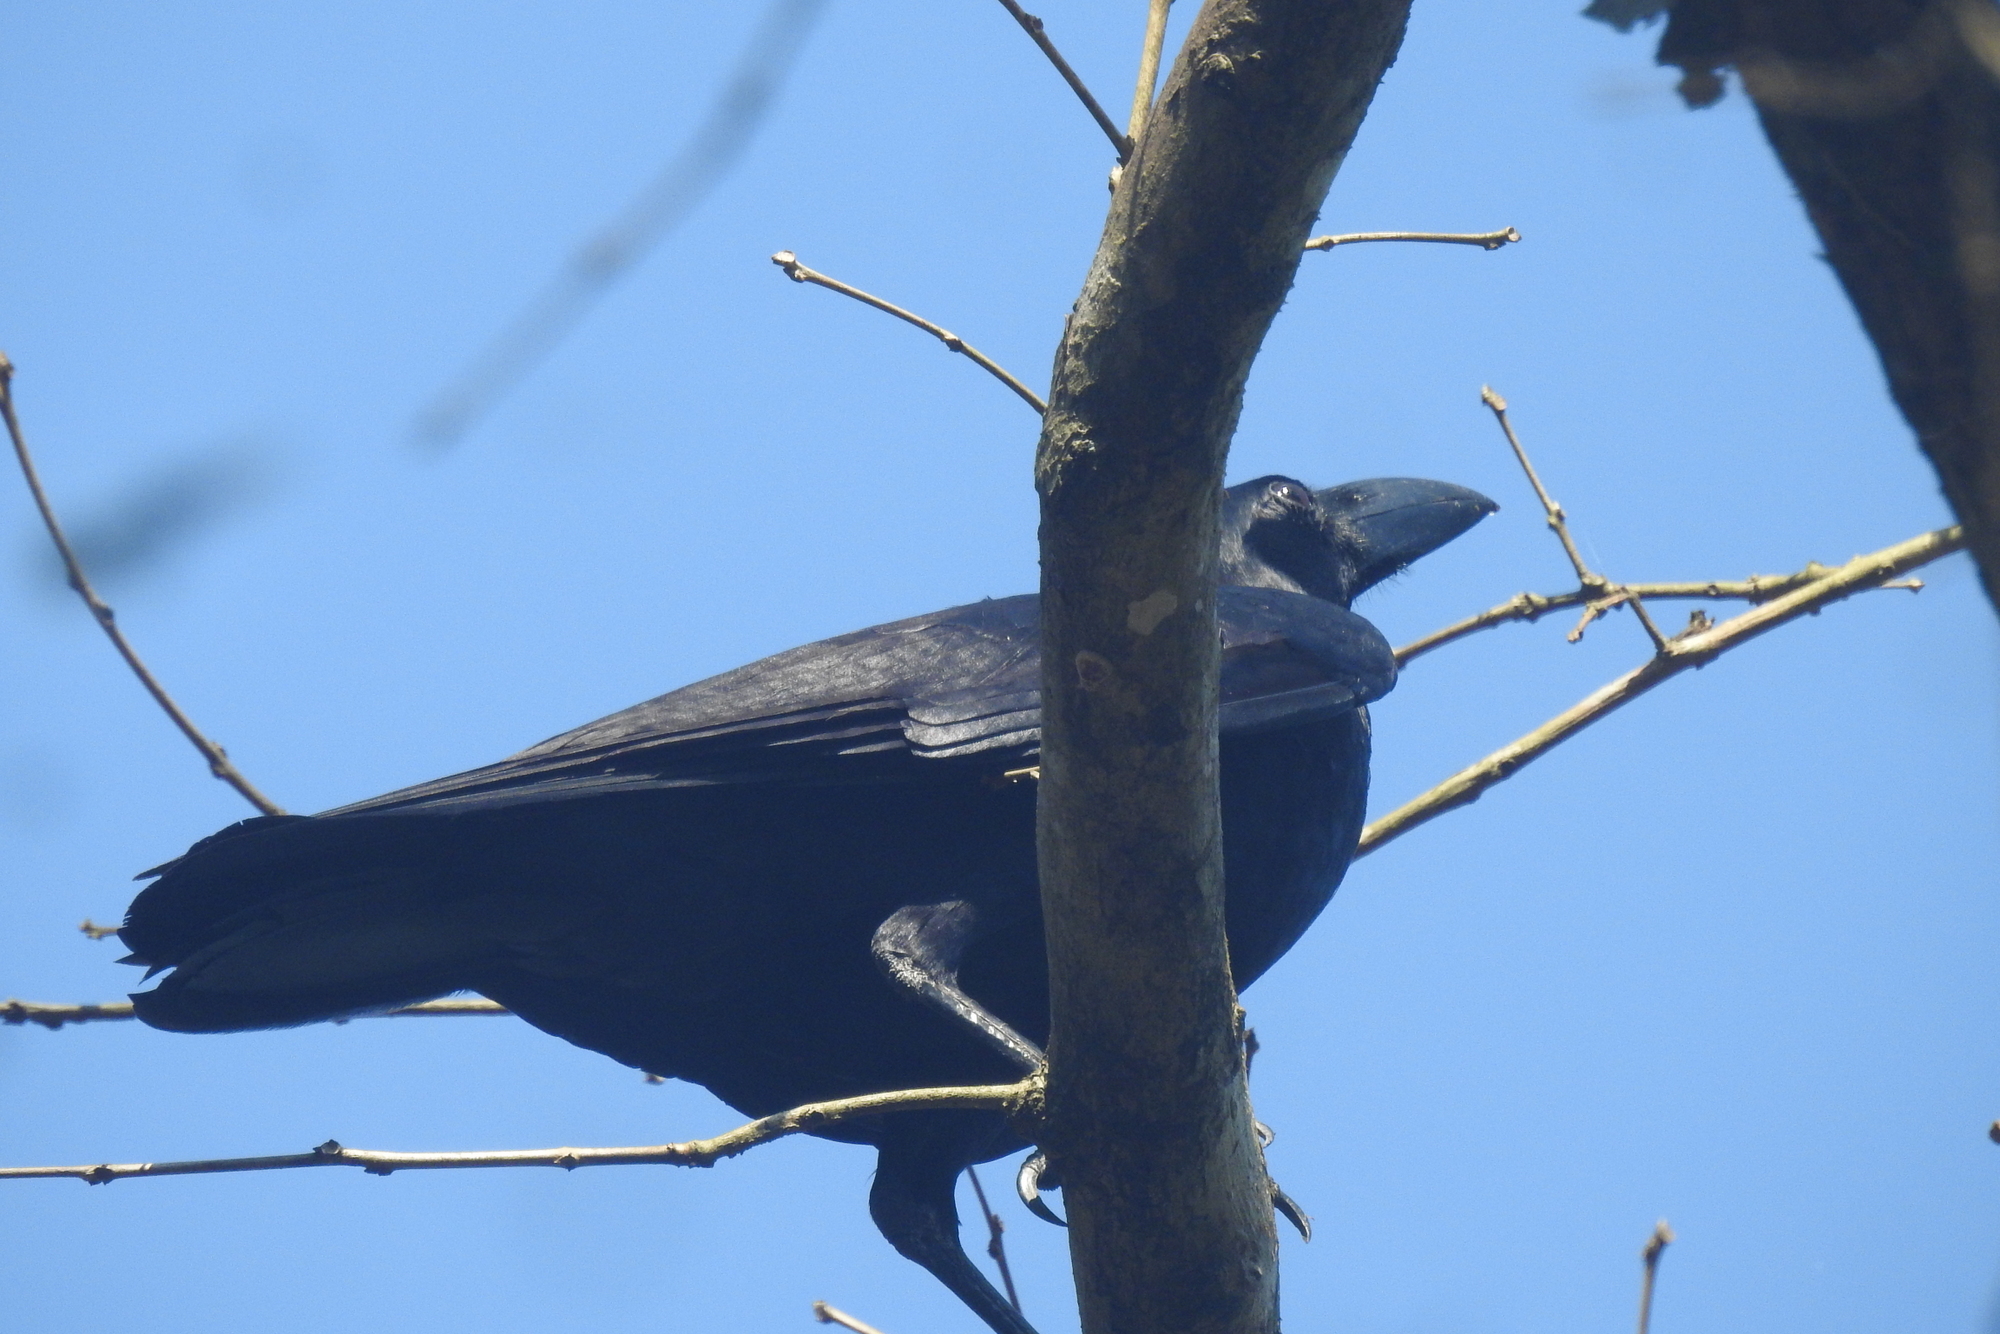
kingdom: Animalia
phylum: Chordata
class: Aves
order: Passeriformes
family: Corvidae
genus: Corvus
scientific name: Corvus macrorhynchos
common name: Large-billed crow
